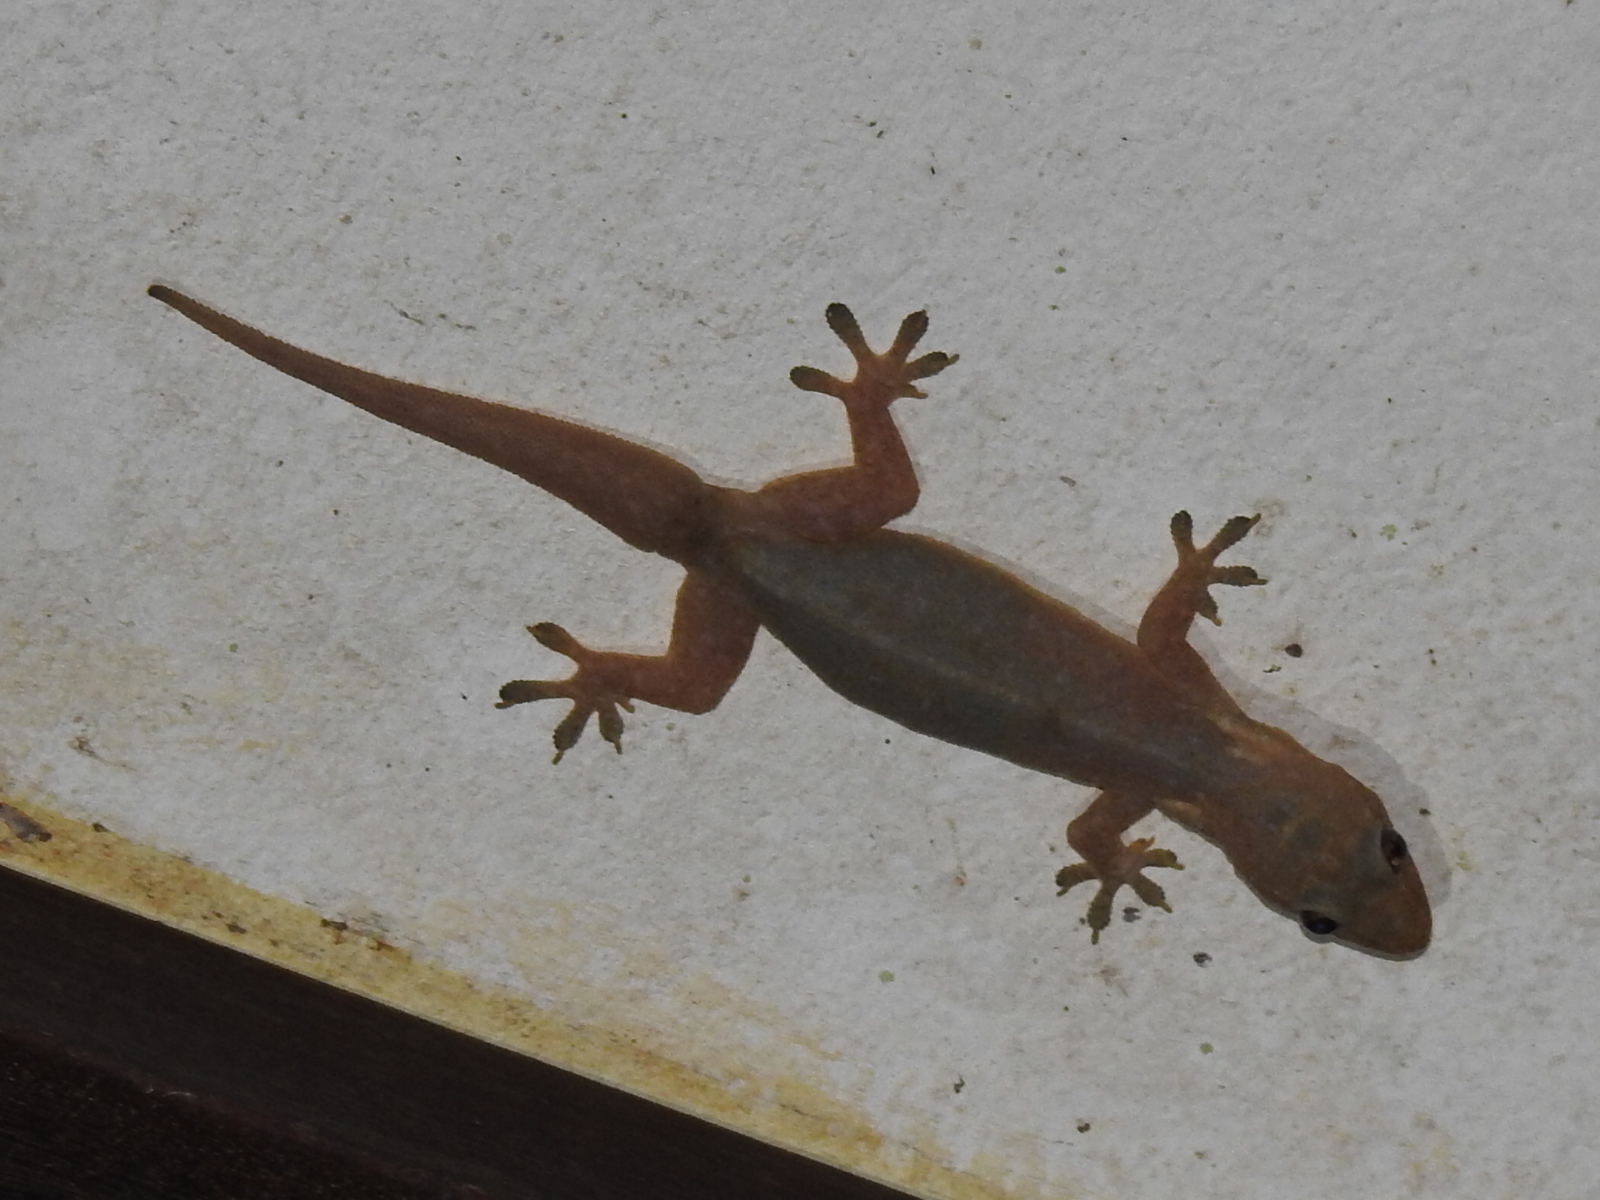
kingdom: Animalia
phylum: Chordata
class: Squamata
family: Gekkonidae
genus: Hemidactylus
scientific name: Hemidactylus frenatus
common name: Common house gecko
